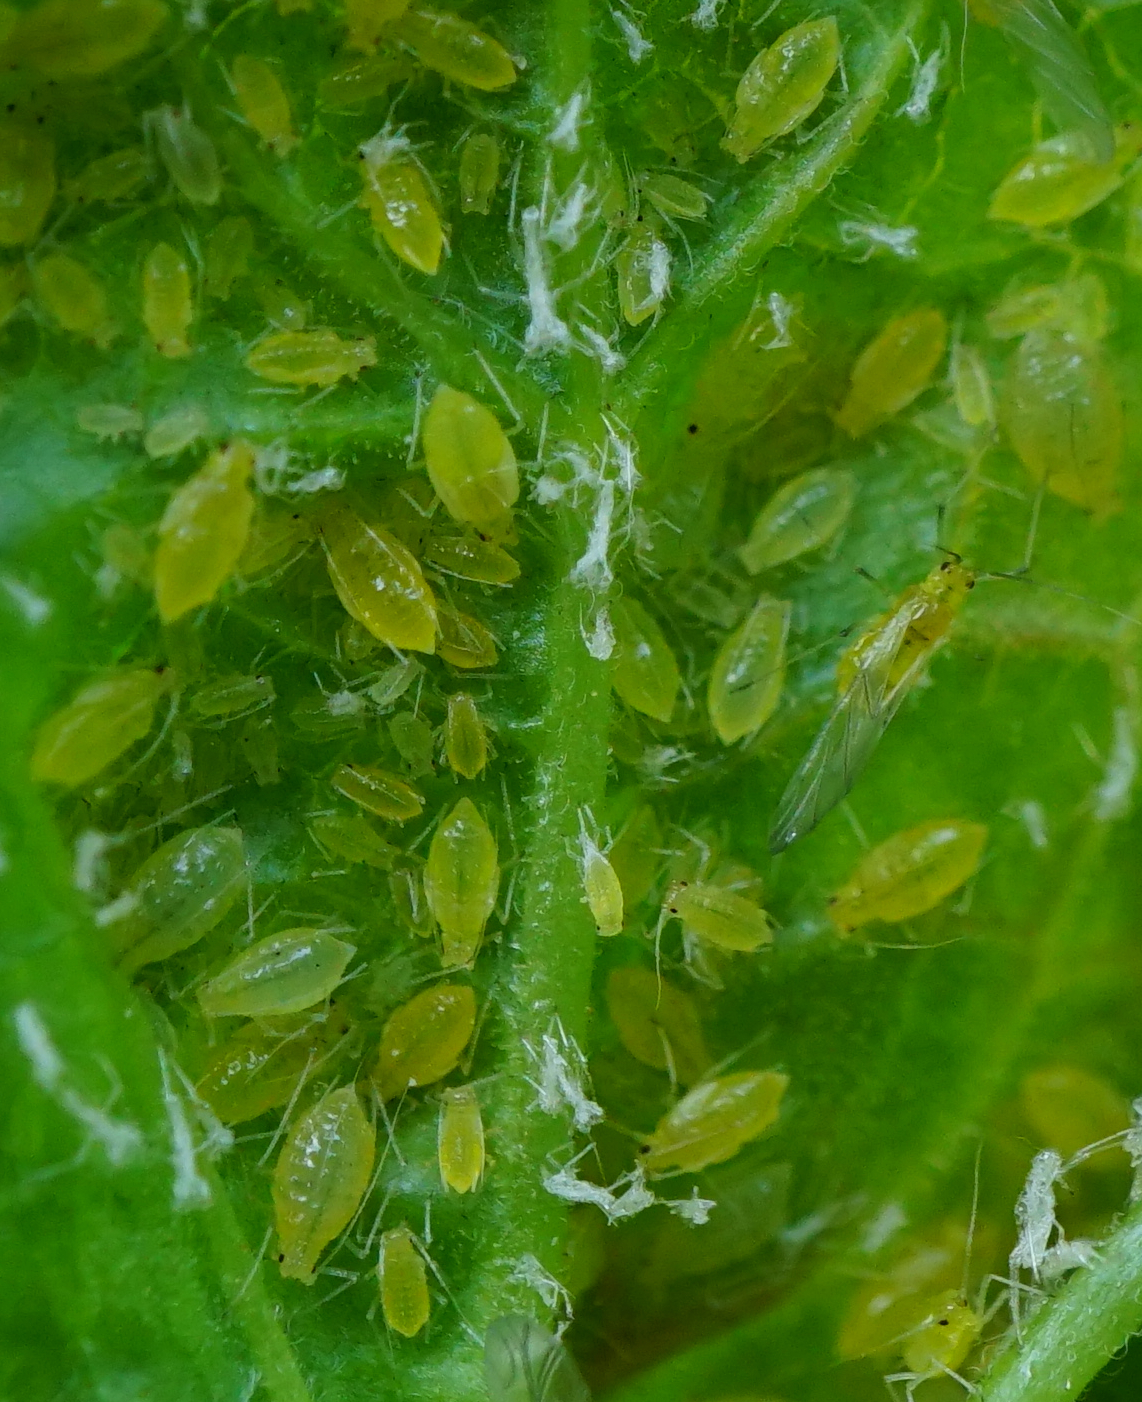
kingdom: Animalia
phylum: Arthropoda
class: Insecta
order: Hemiptera
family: Aphididae
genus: Cryptomyzus
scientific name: Cryptomyzus ribis
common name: Currant aphid
